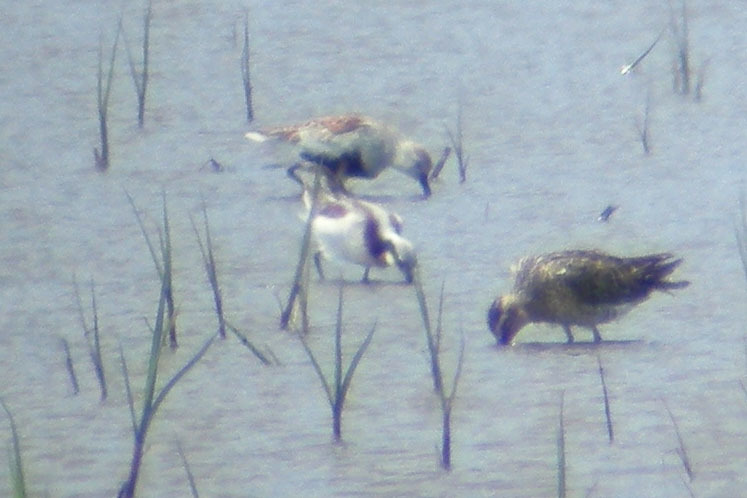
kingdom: Animalia
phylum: Chordata
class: Aves
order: Charadriiformes
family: Scolopacidae
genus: Phalaropus
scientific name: Phalaropus tricolor
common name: Wilson's phalarope
